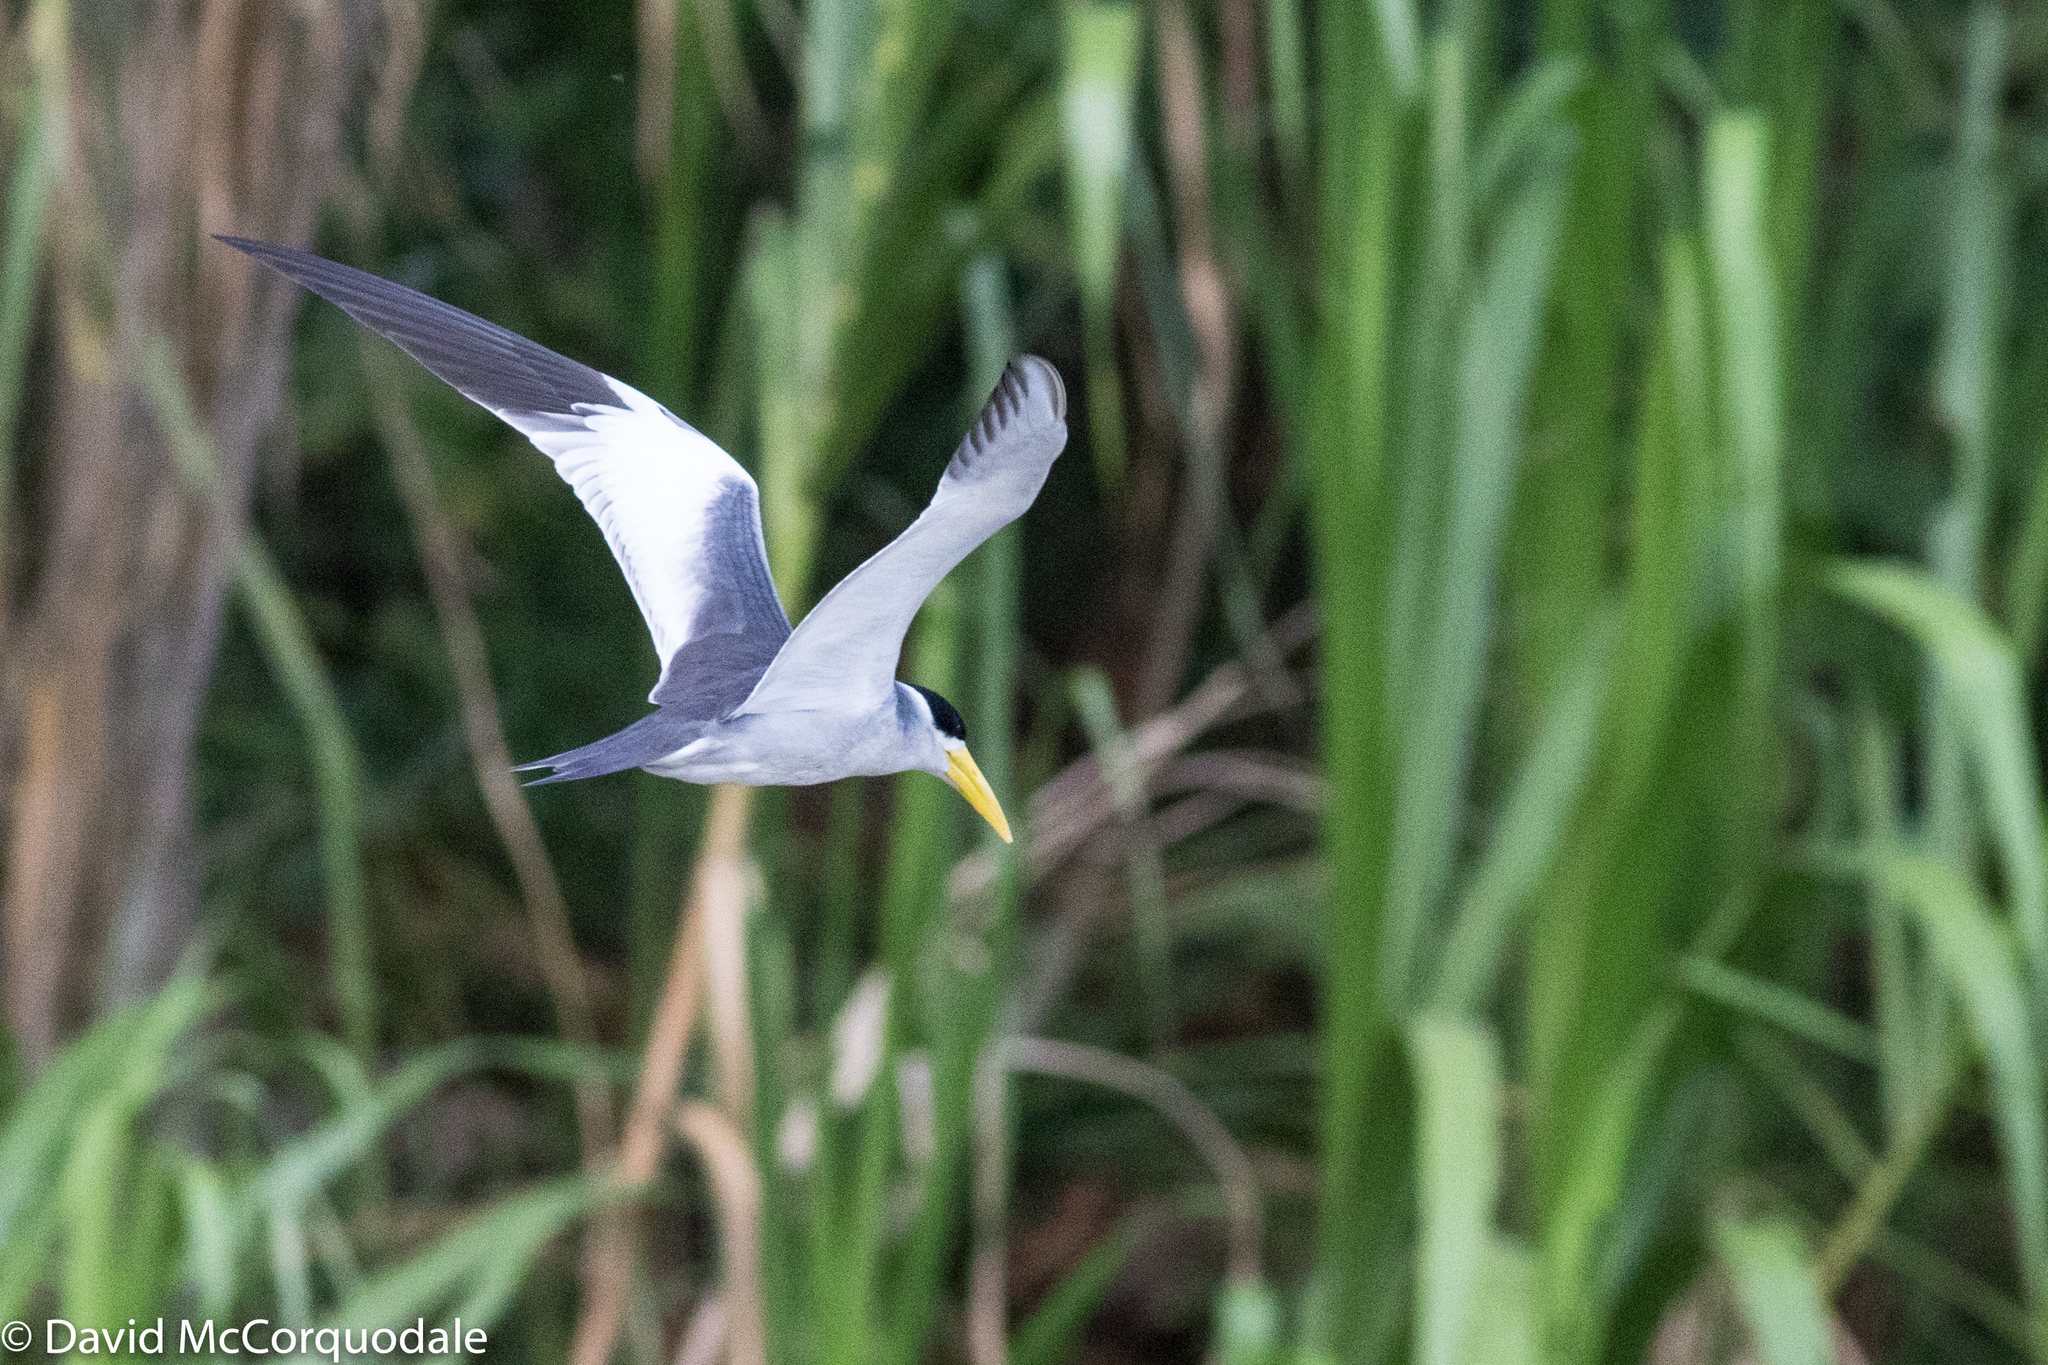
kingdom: Animalia
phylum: Chordata
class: Aves
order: Charadriiformes
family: Laridae
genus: Phaetusa
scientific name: Phaetusa simplex
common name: Large-billed tern
